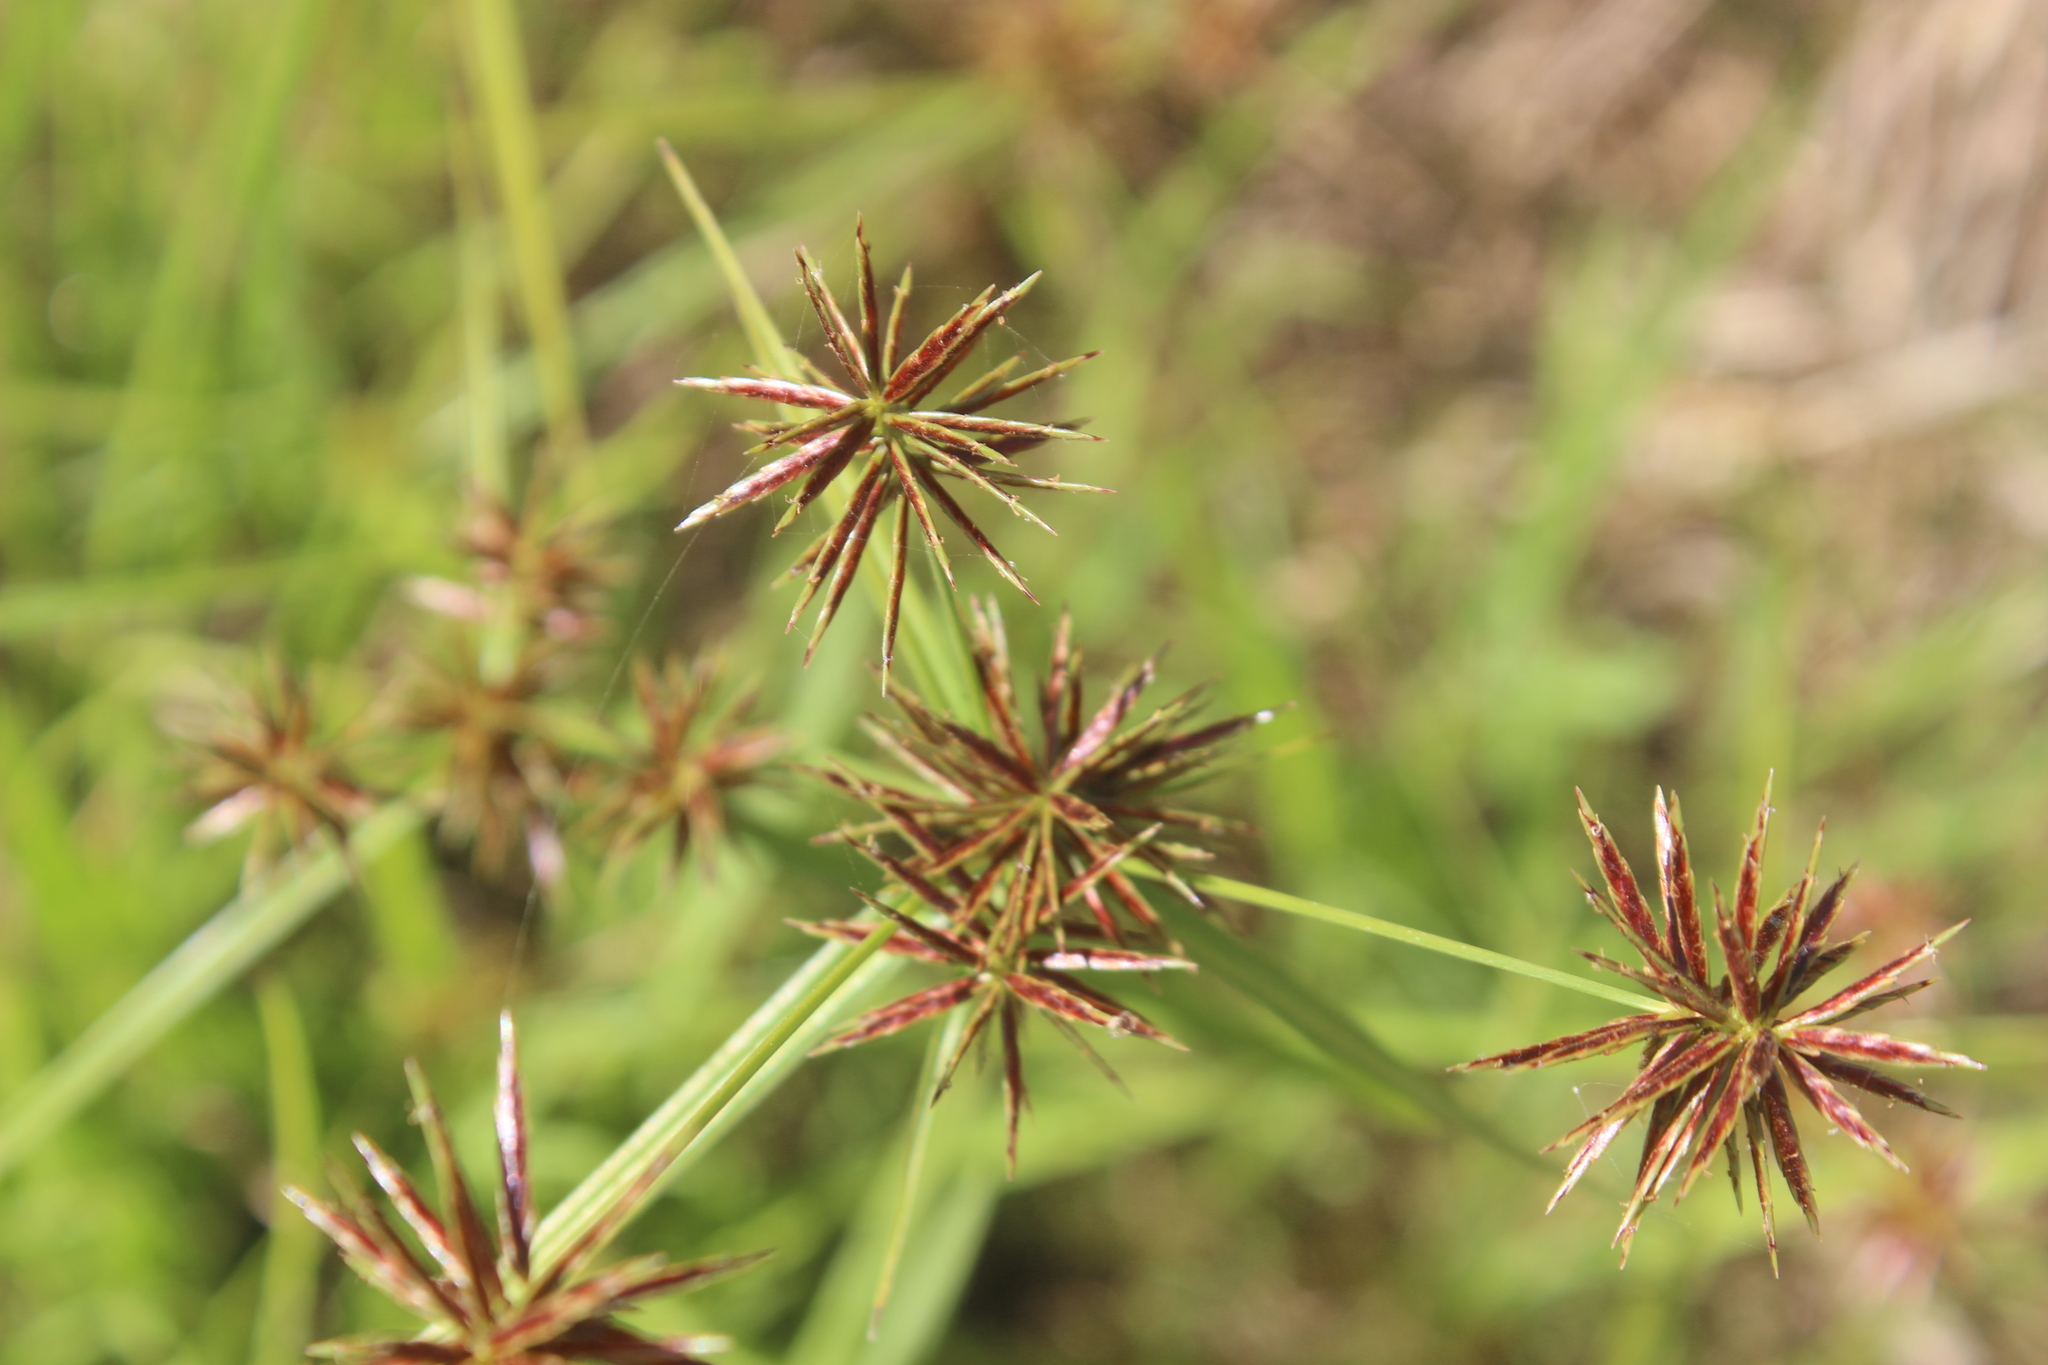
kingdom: Plantae
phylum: Tracheophyta
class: Liliopsida
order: Poales
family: Cyperaceae
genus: Cyperus
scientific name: Cyperus congestus
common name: Dense flat sedge
